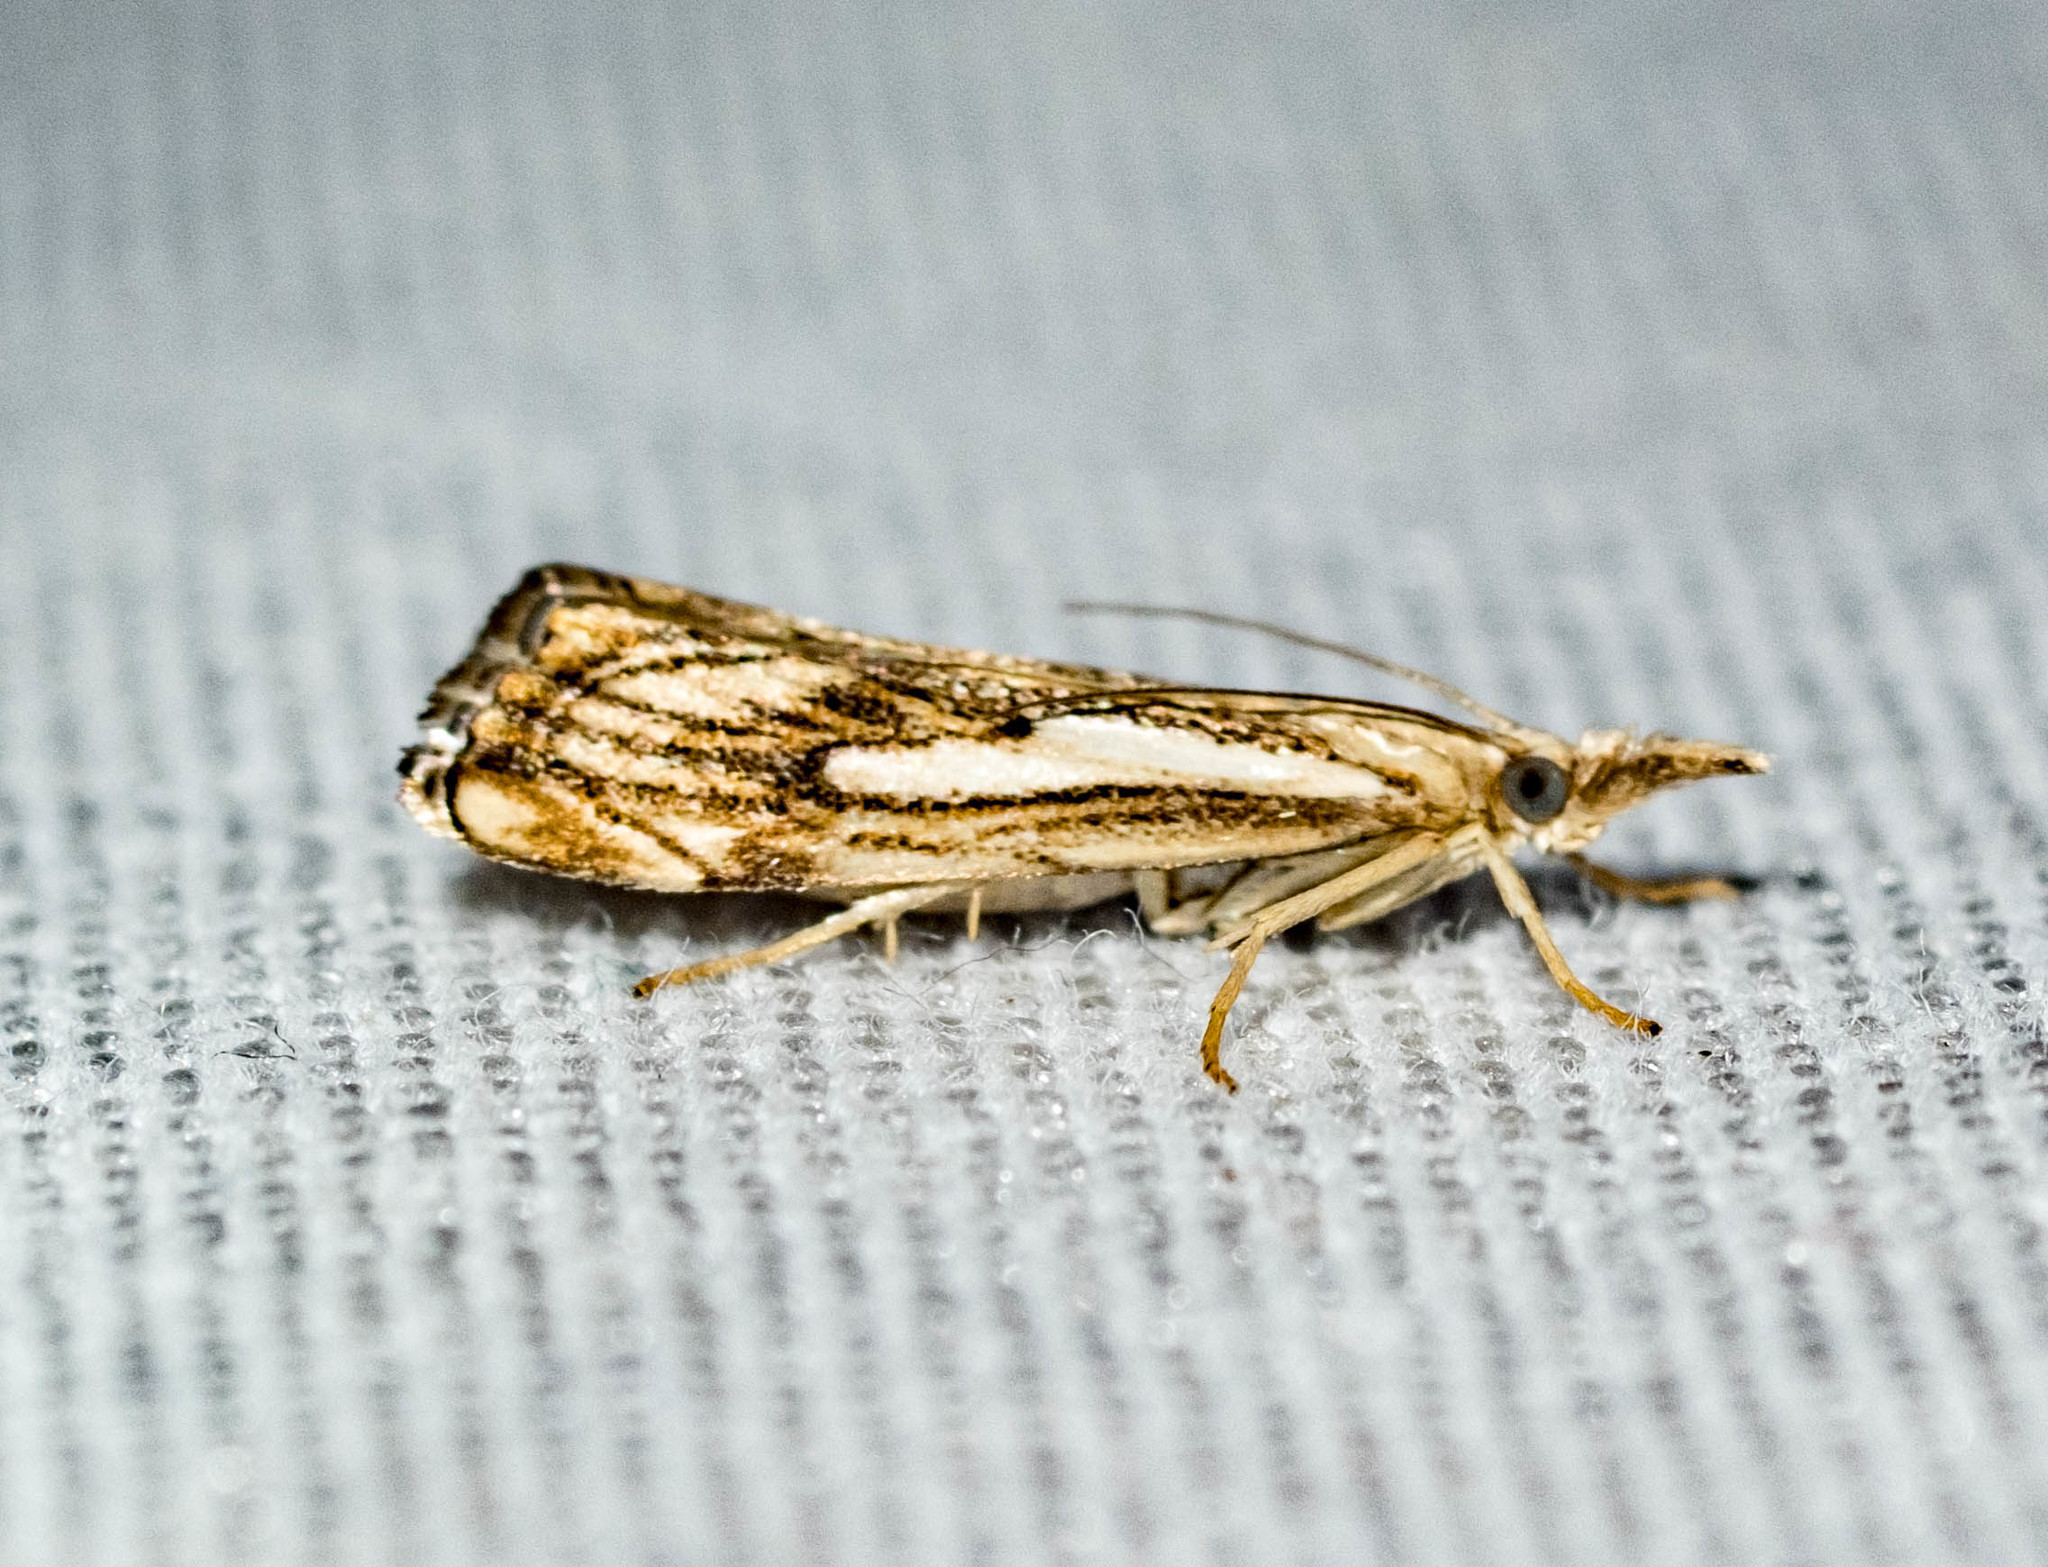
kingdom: Animalia
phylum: Arthropoda
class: Insecta
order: Lepidoptera
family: Crambidae
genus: Catoptria
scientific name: Catoptria falsella
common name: Chequered grass-veneer
